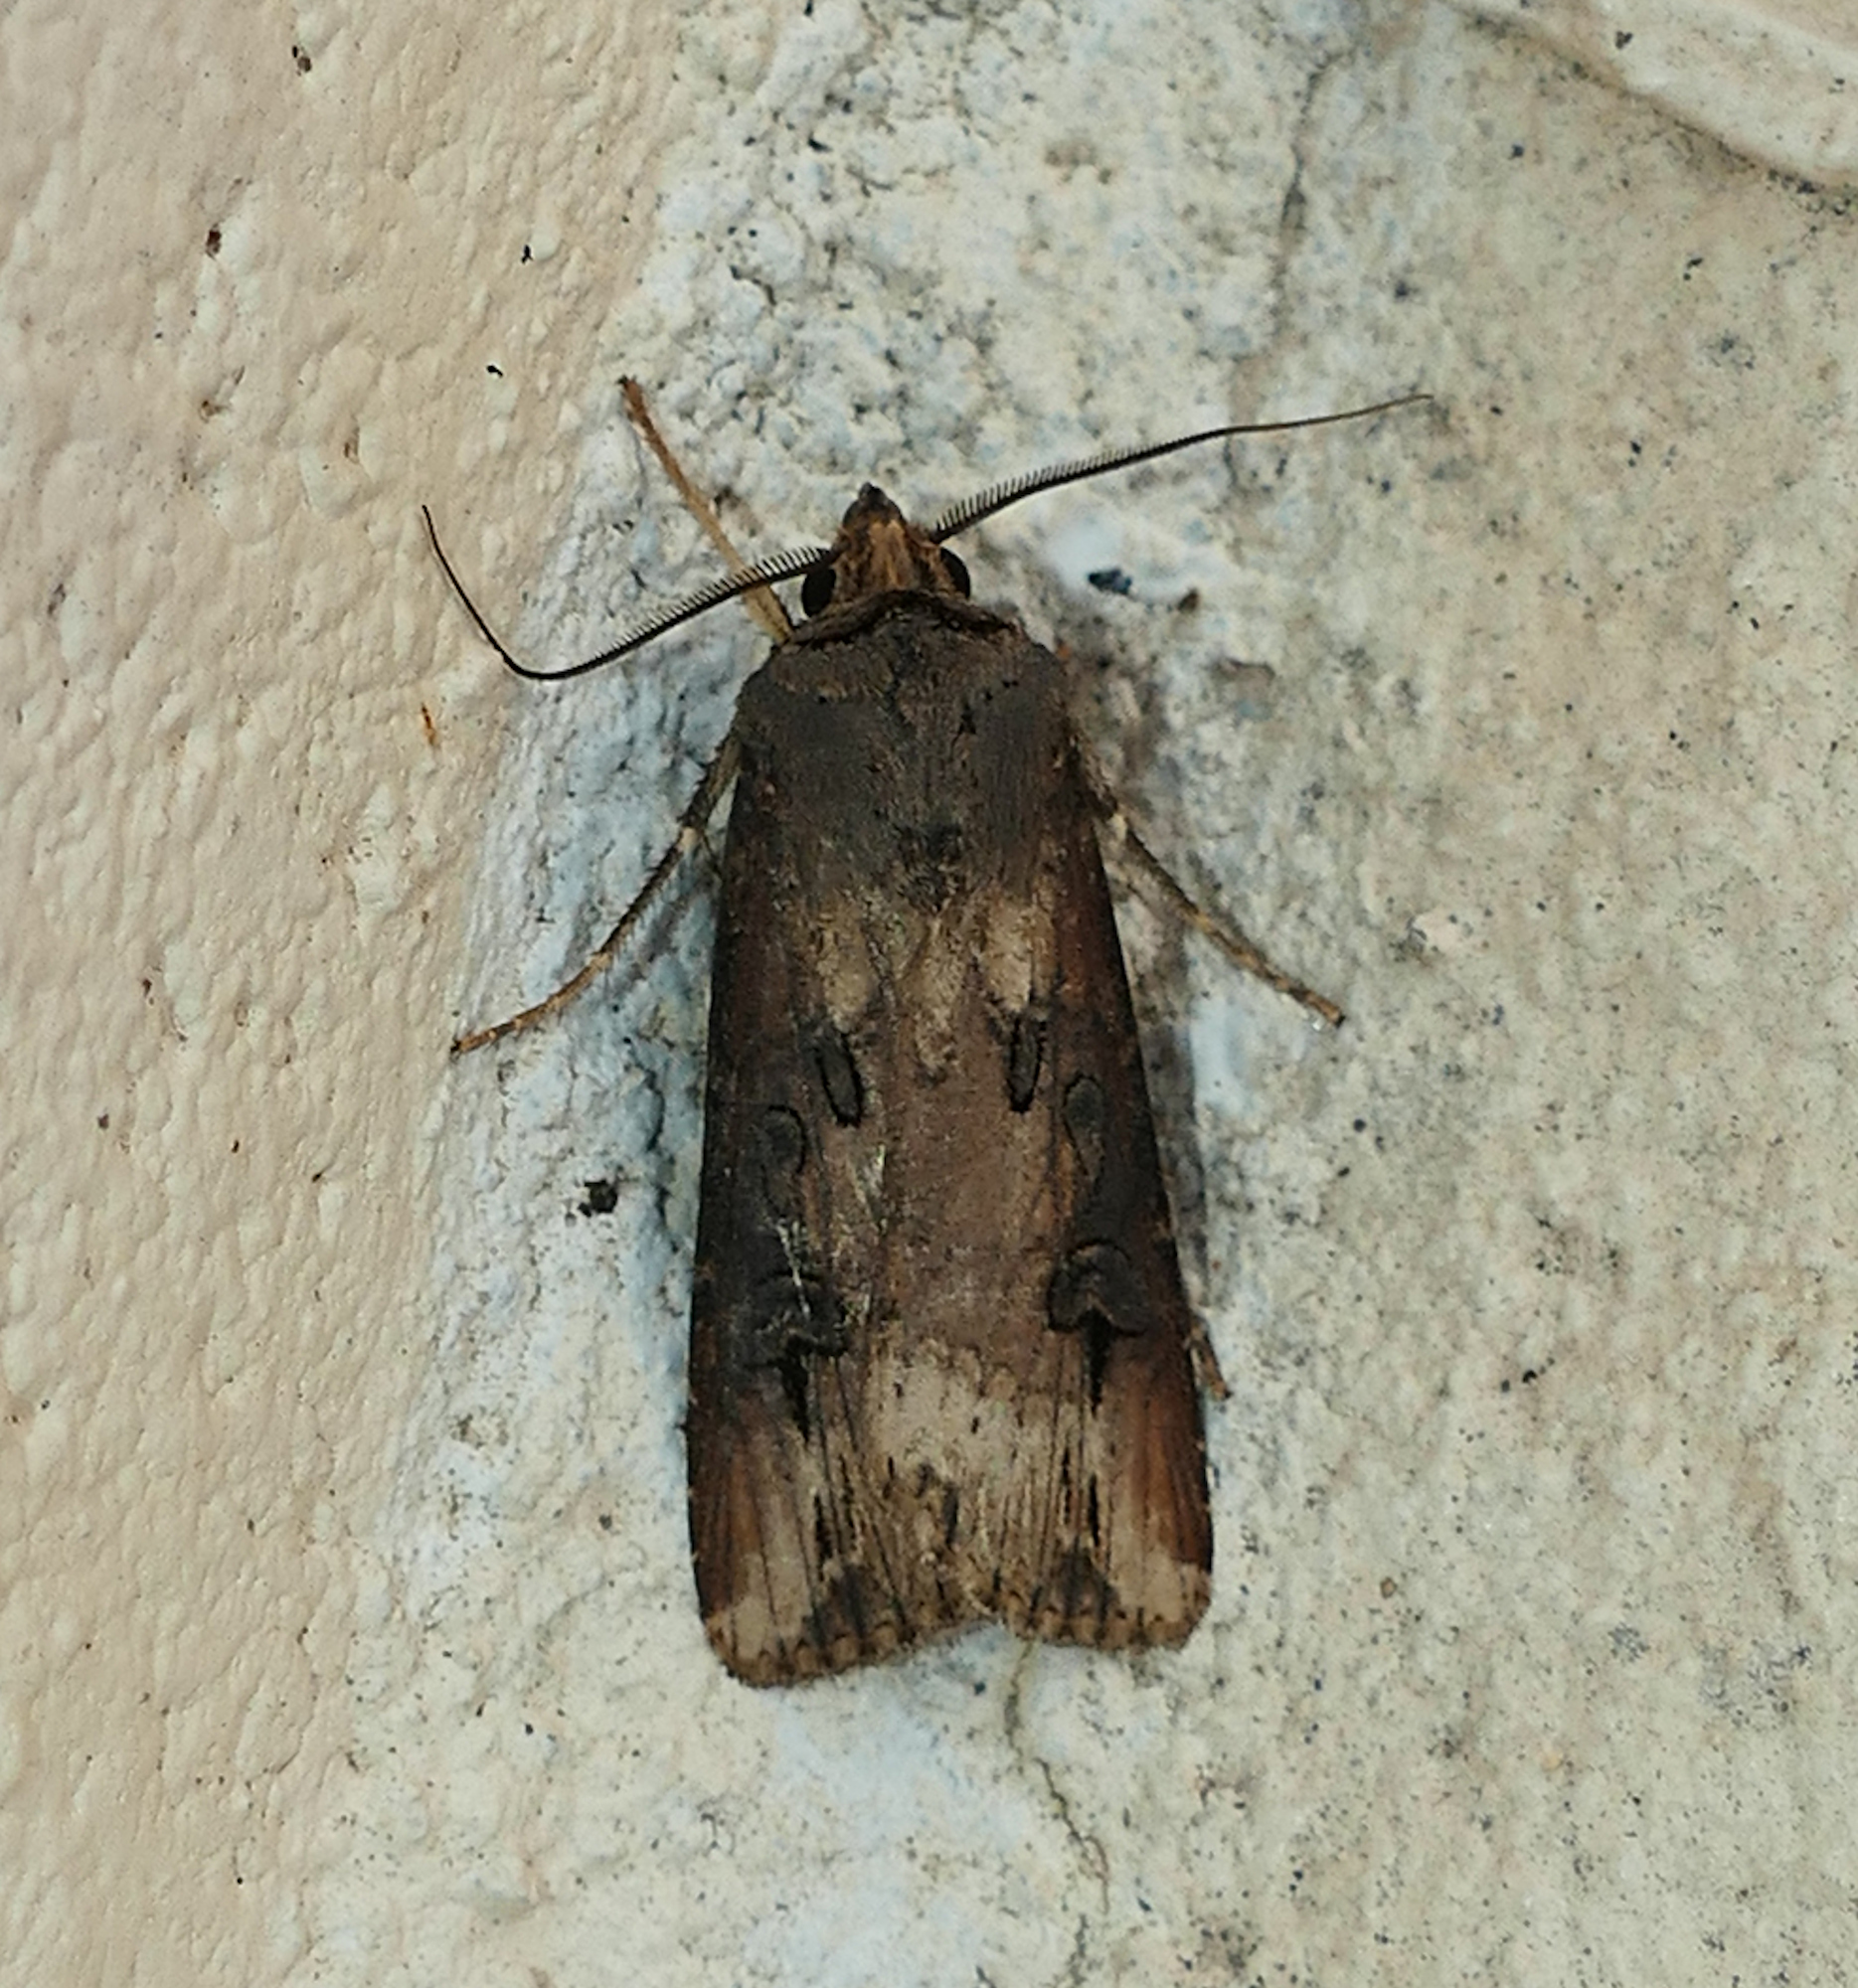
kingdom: Animalia
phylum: Arthropoda
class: Insecta
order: Lepidoptera
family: Noctuidae
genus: Agrotis
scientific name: Agrotis ipsilon
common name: Dark sword-grass
